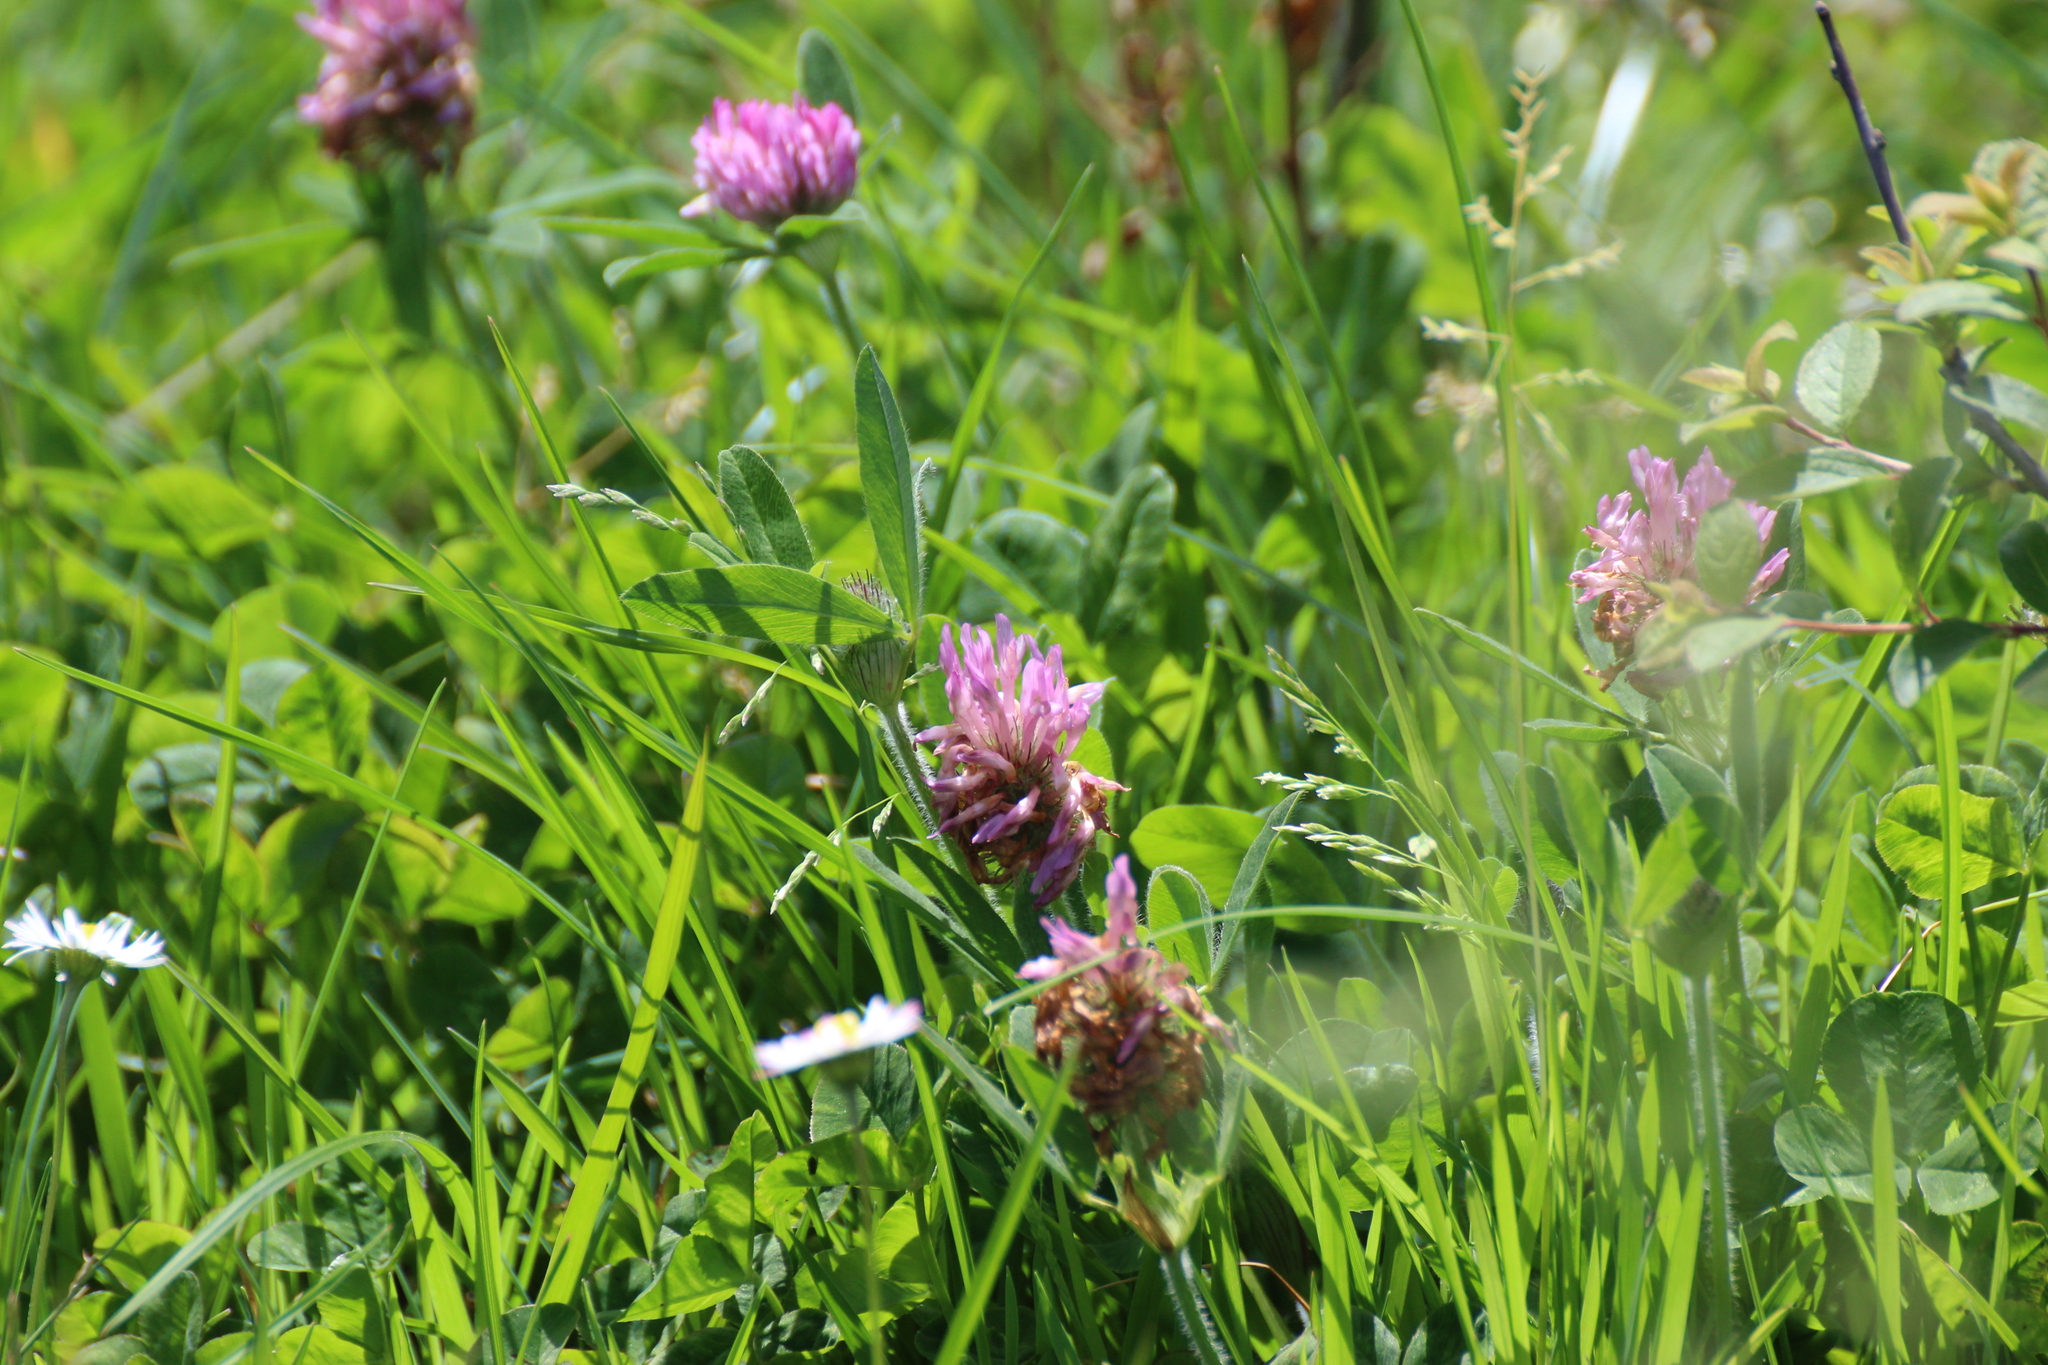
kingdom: Plantae
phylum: Tracheophyta
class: Magnoliopsida
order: Fabales
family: Fabaceae
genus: Trifolium
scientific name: Trifolium pratense
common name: Red clover
